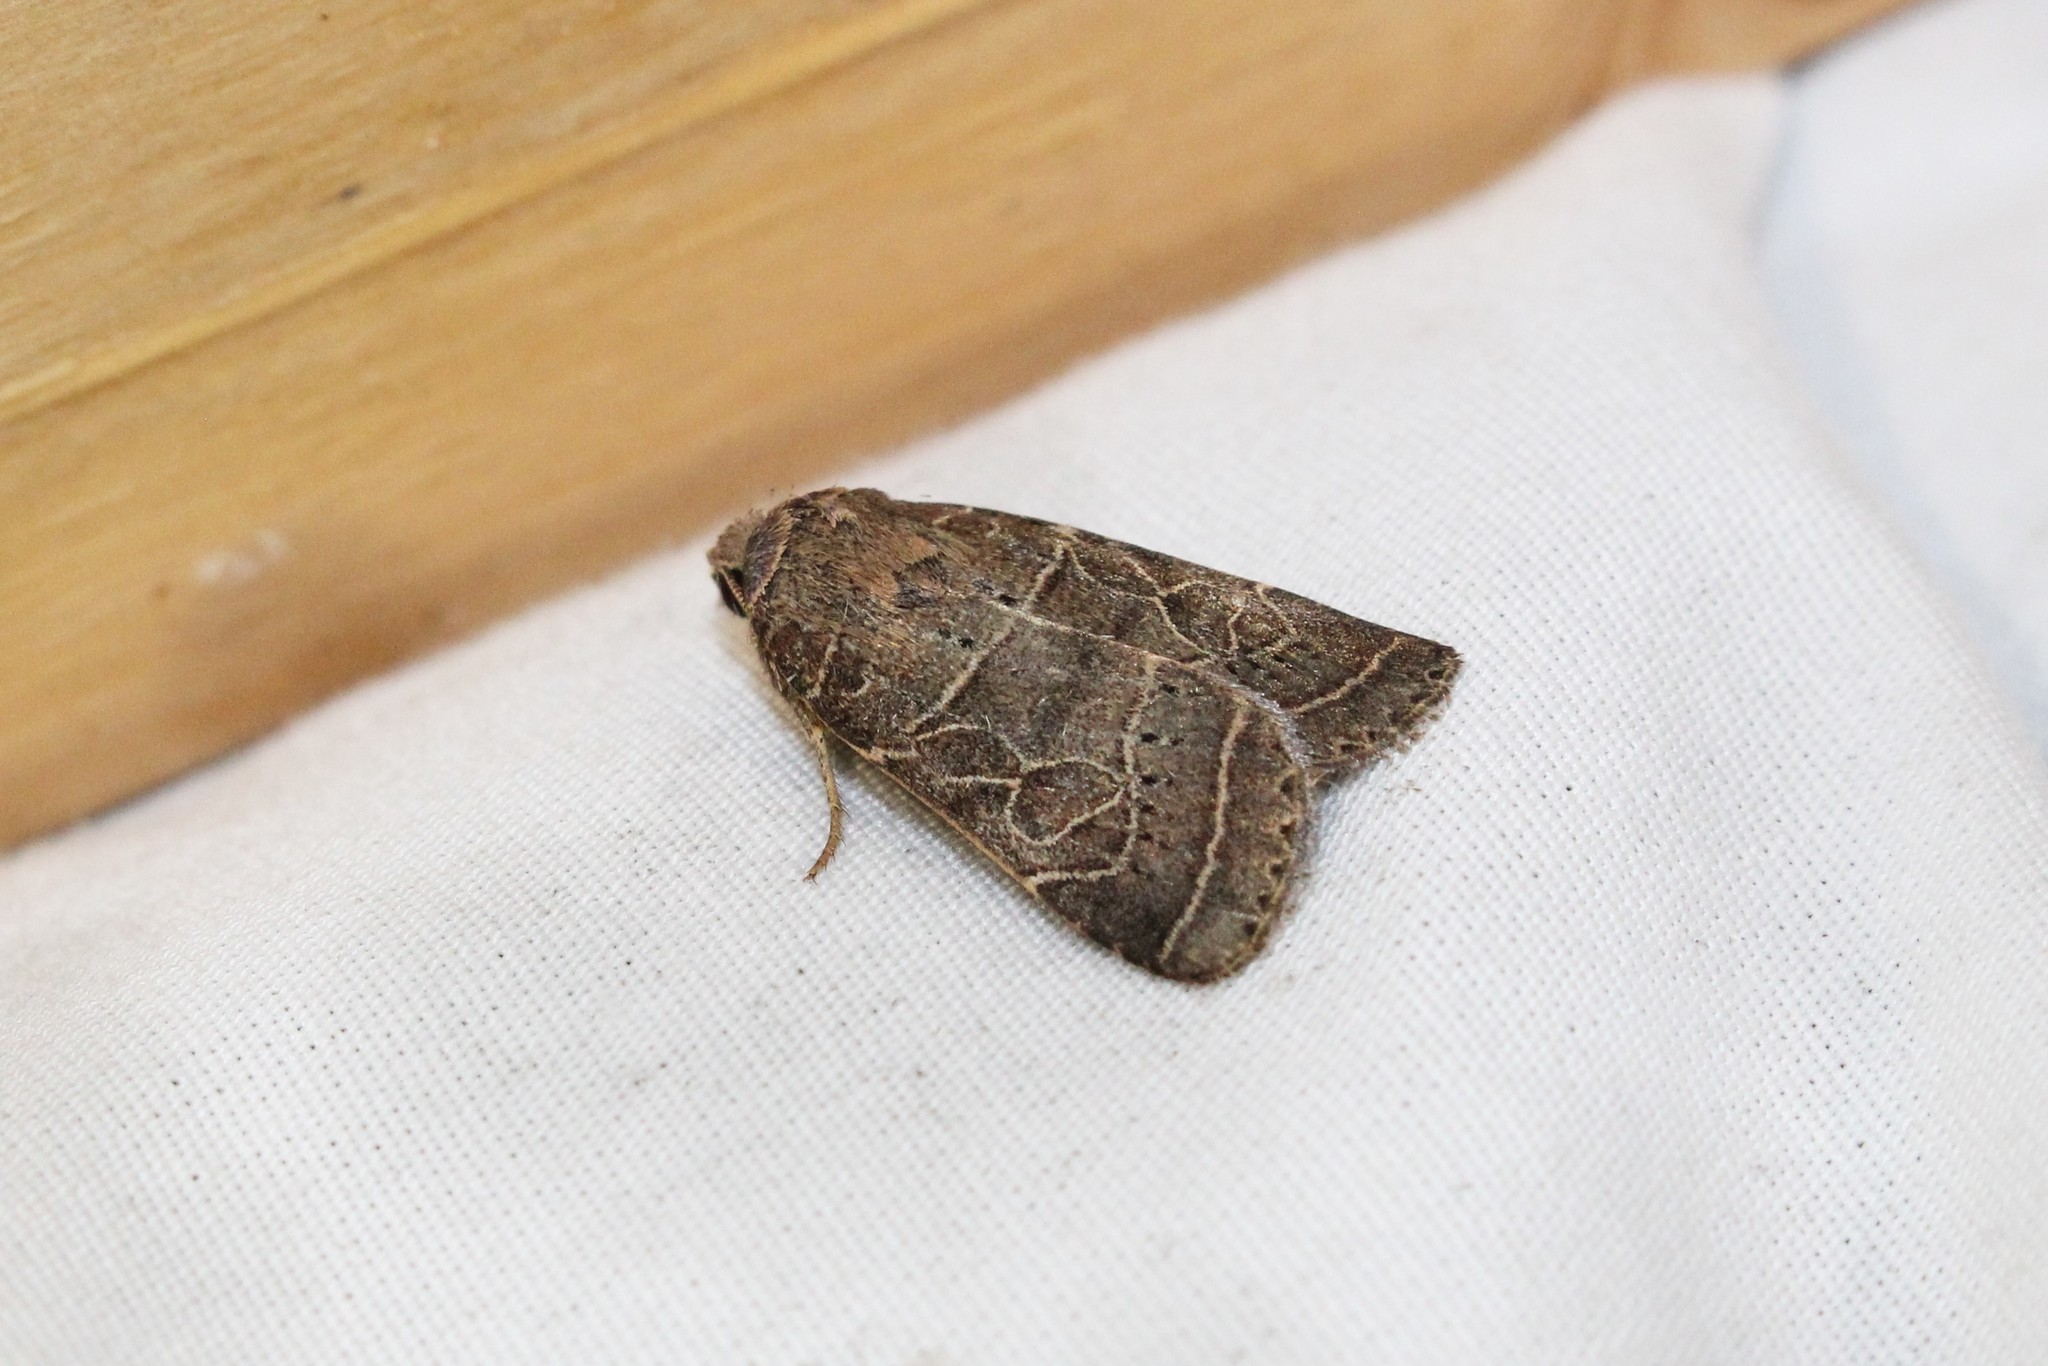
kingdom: Animalia
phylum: Arthropoda
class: Insecta
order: Lepidoptera
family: Noctuidae
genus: Orthodes
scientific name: Orthodes majuscula
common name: Rustic quaker
